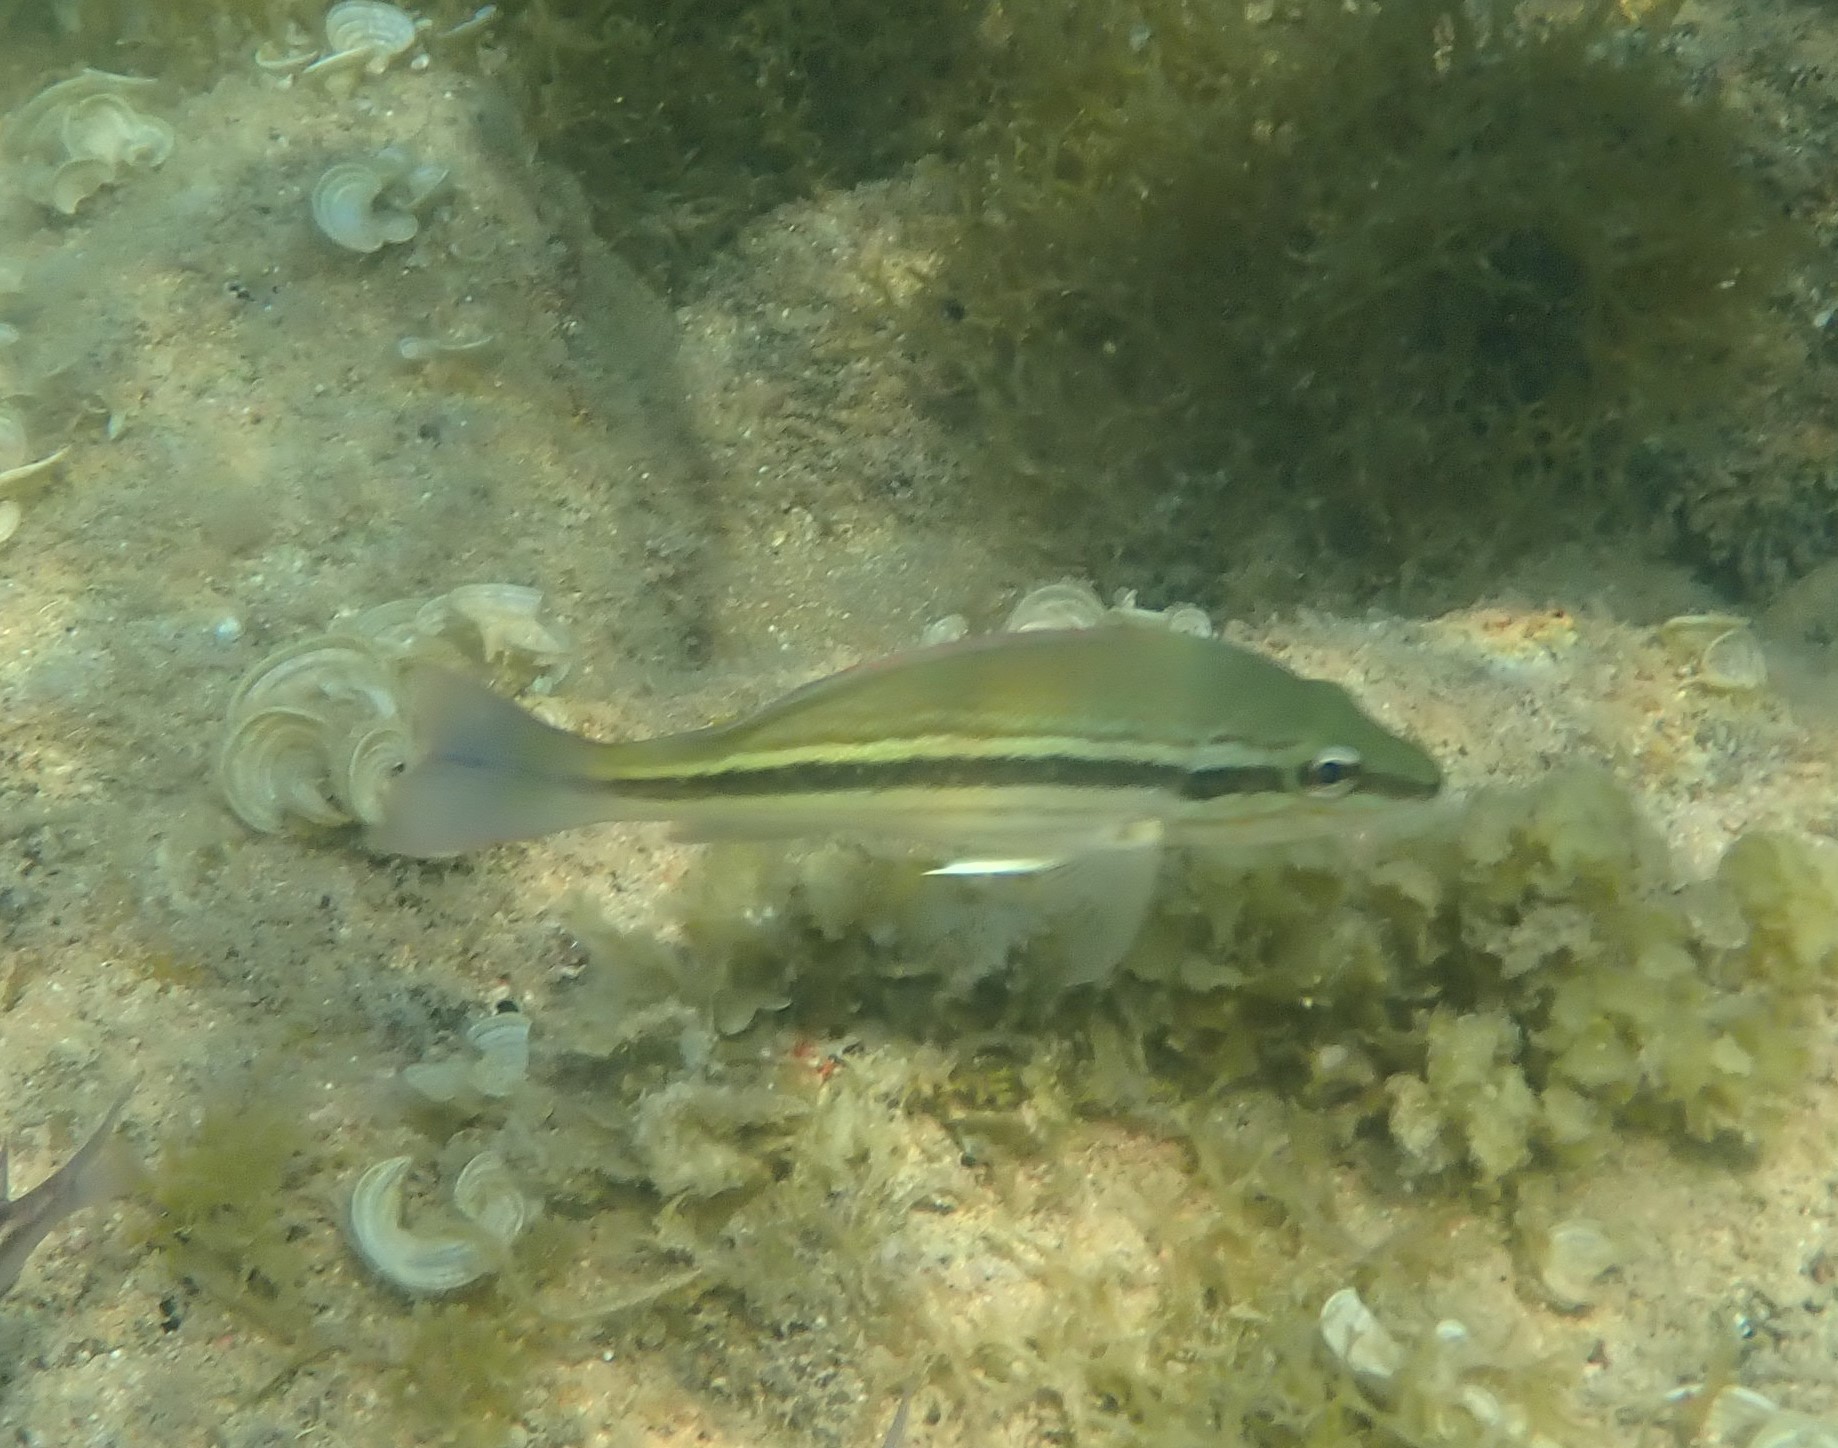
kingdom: Animalia
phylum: Chordata
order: Perciformes
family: Lutjanidae
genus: Lutjanus
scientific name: Lutjanus lemniscatus
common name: Yellowstreaked snapper
